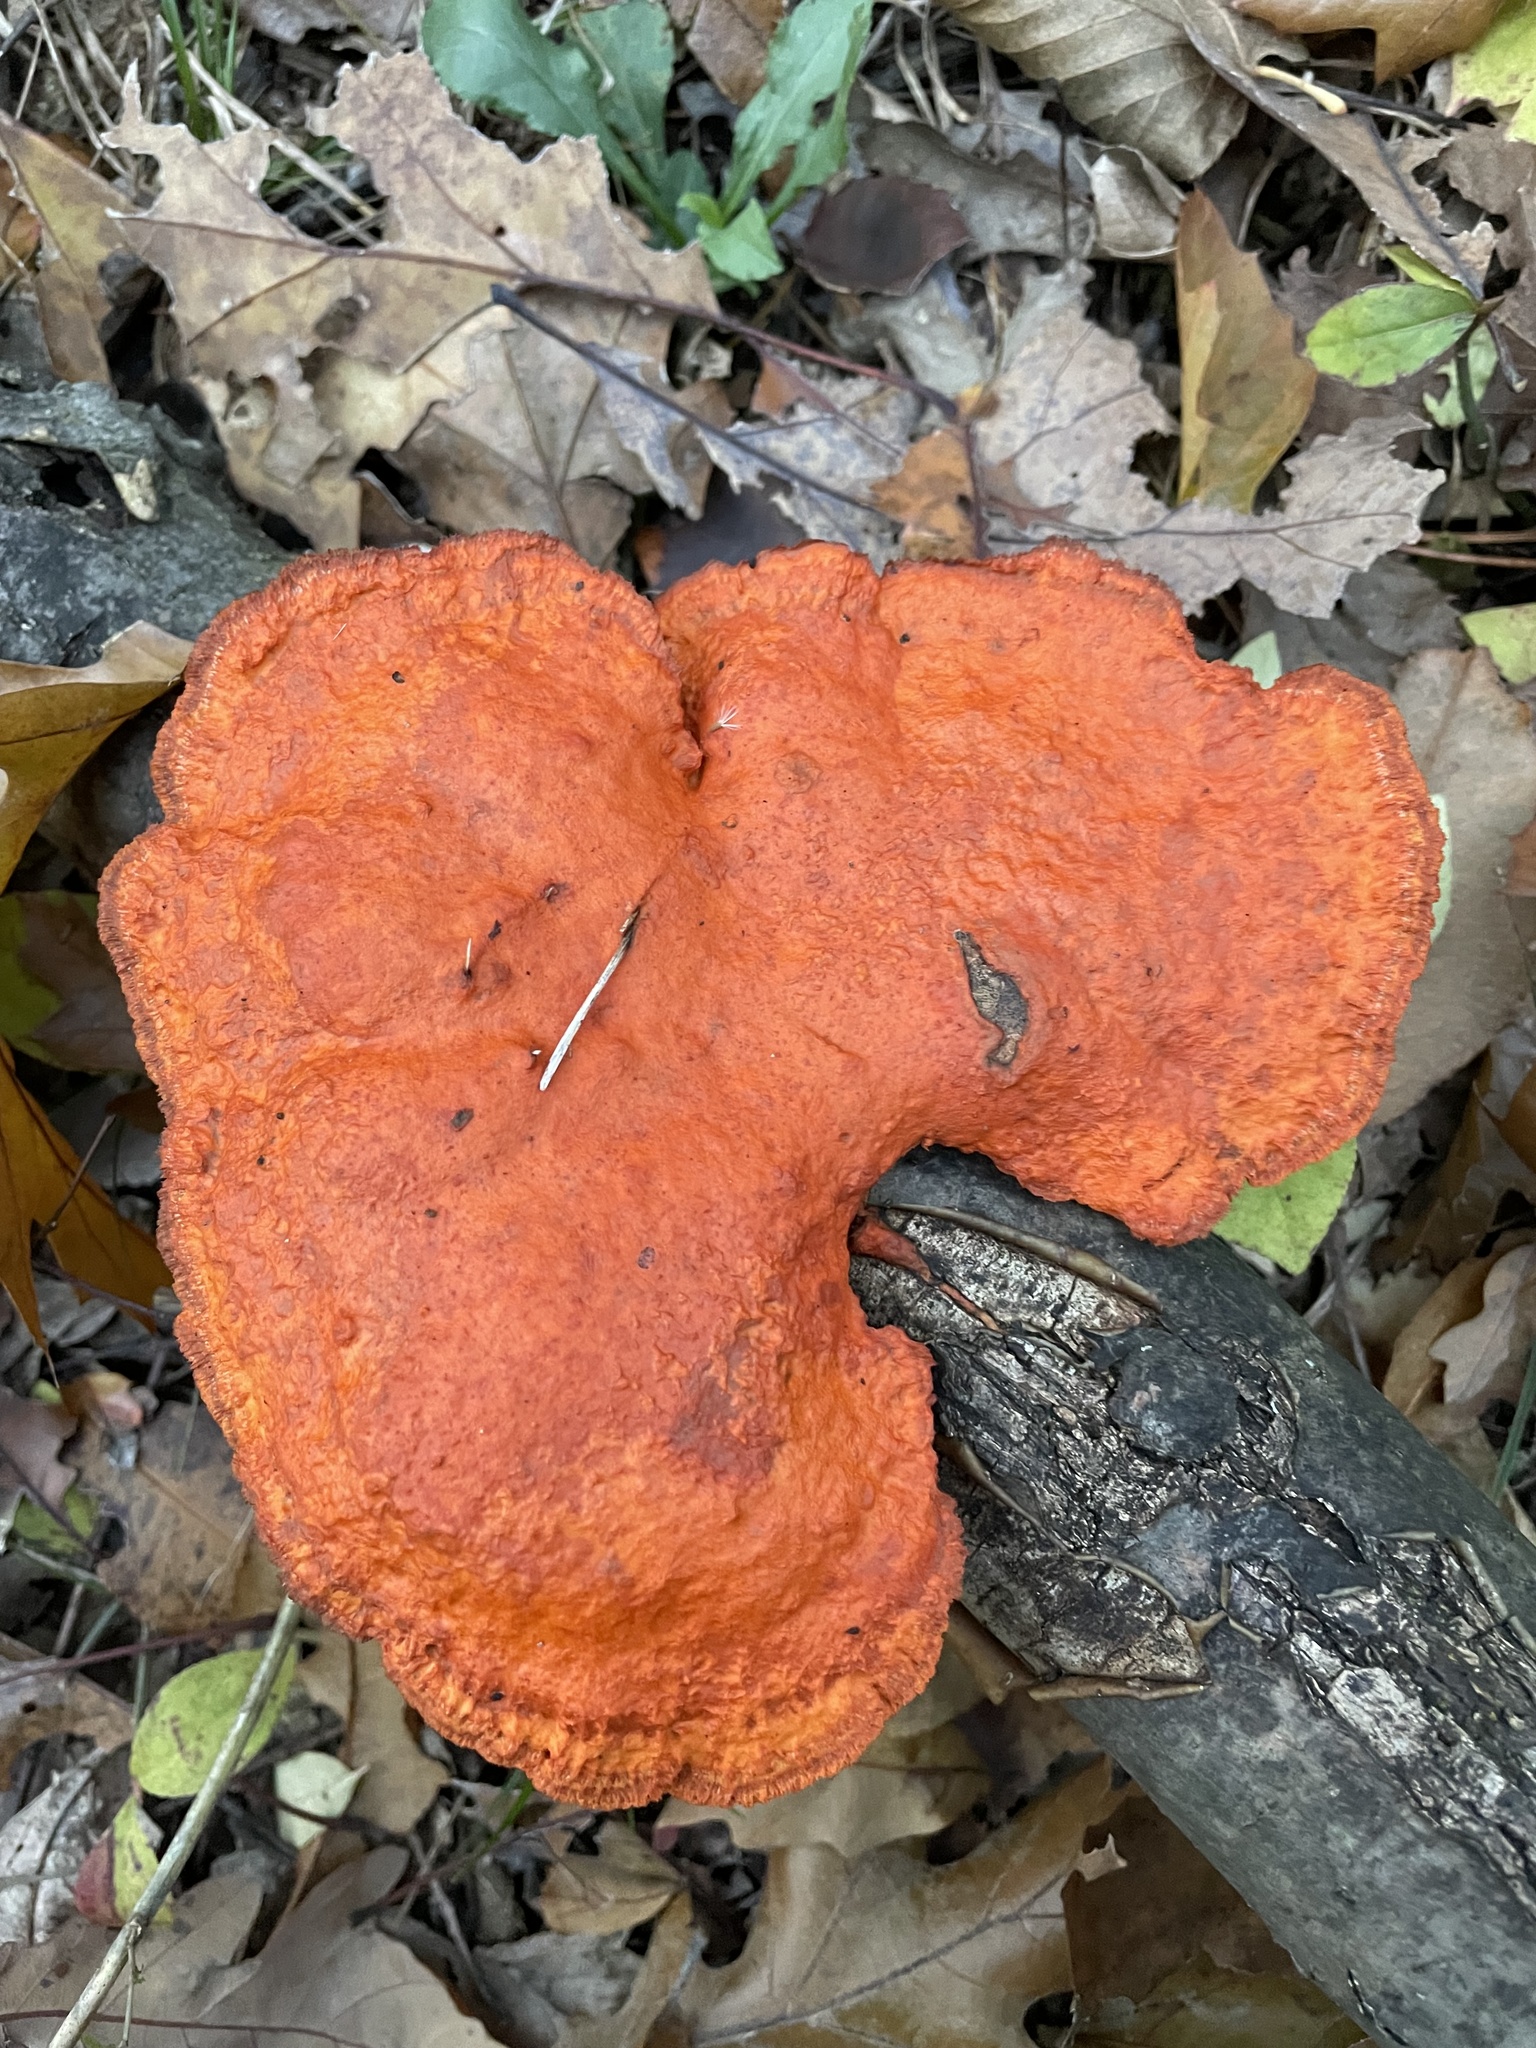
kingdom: Fungi
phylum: Basidiomycota
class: Agaricomycetes
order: Polyporales
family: Polyporaceae
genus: Trametes
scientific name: Trametes cinnabarina
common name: Northern cinnabar polypore
